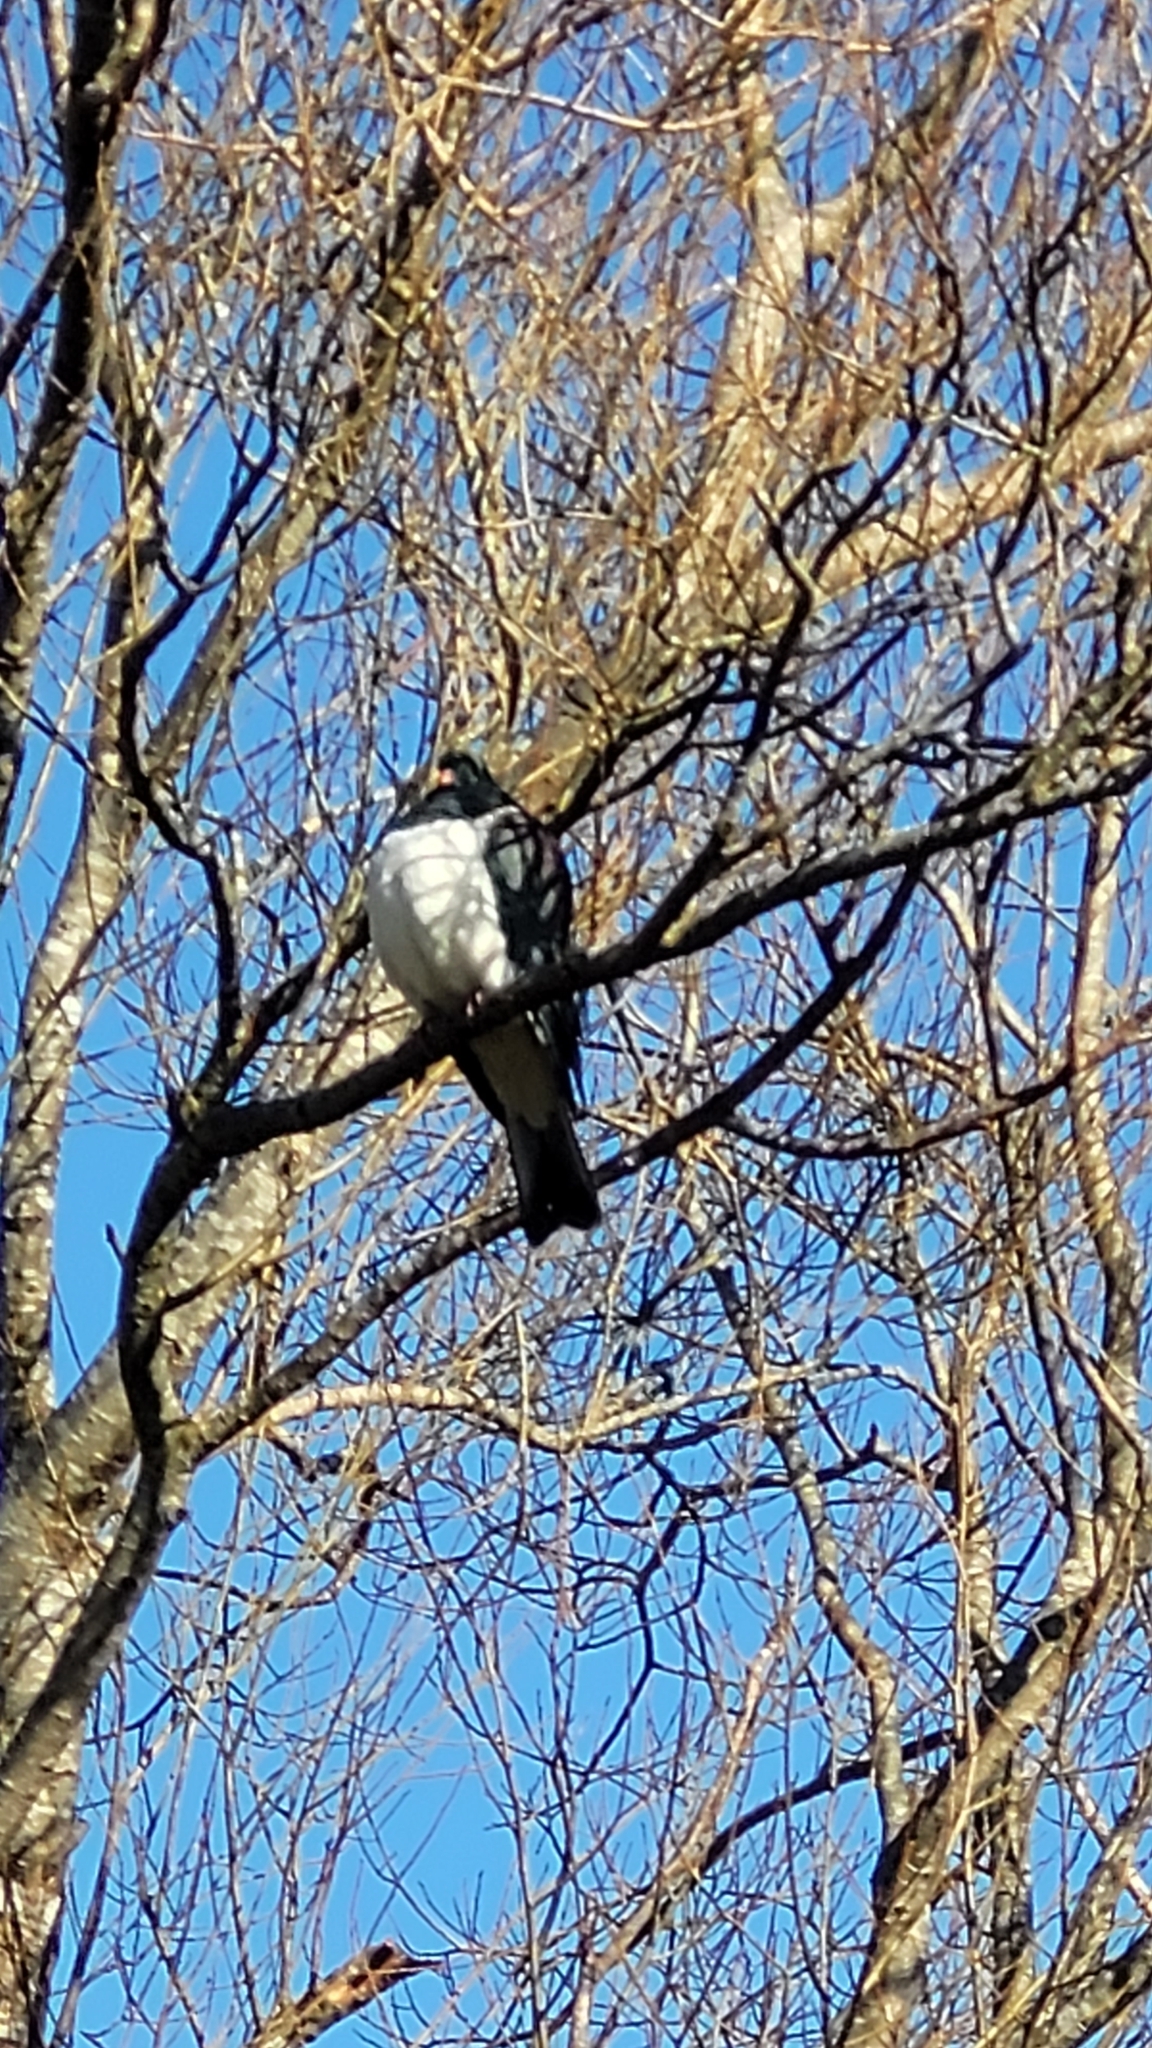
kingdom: Animalia
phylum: Chordata
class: Aves
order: Columbiformes
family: Columbidae
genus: Hemiphaga
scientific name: Hemiphaga novaeseelandiae
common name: New zealand pigeon
